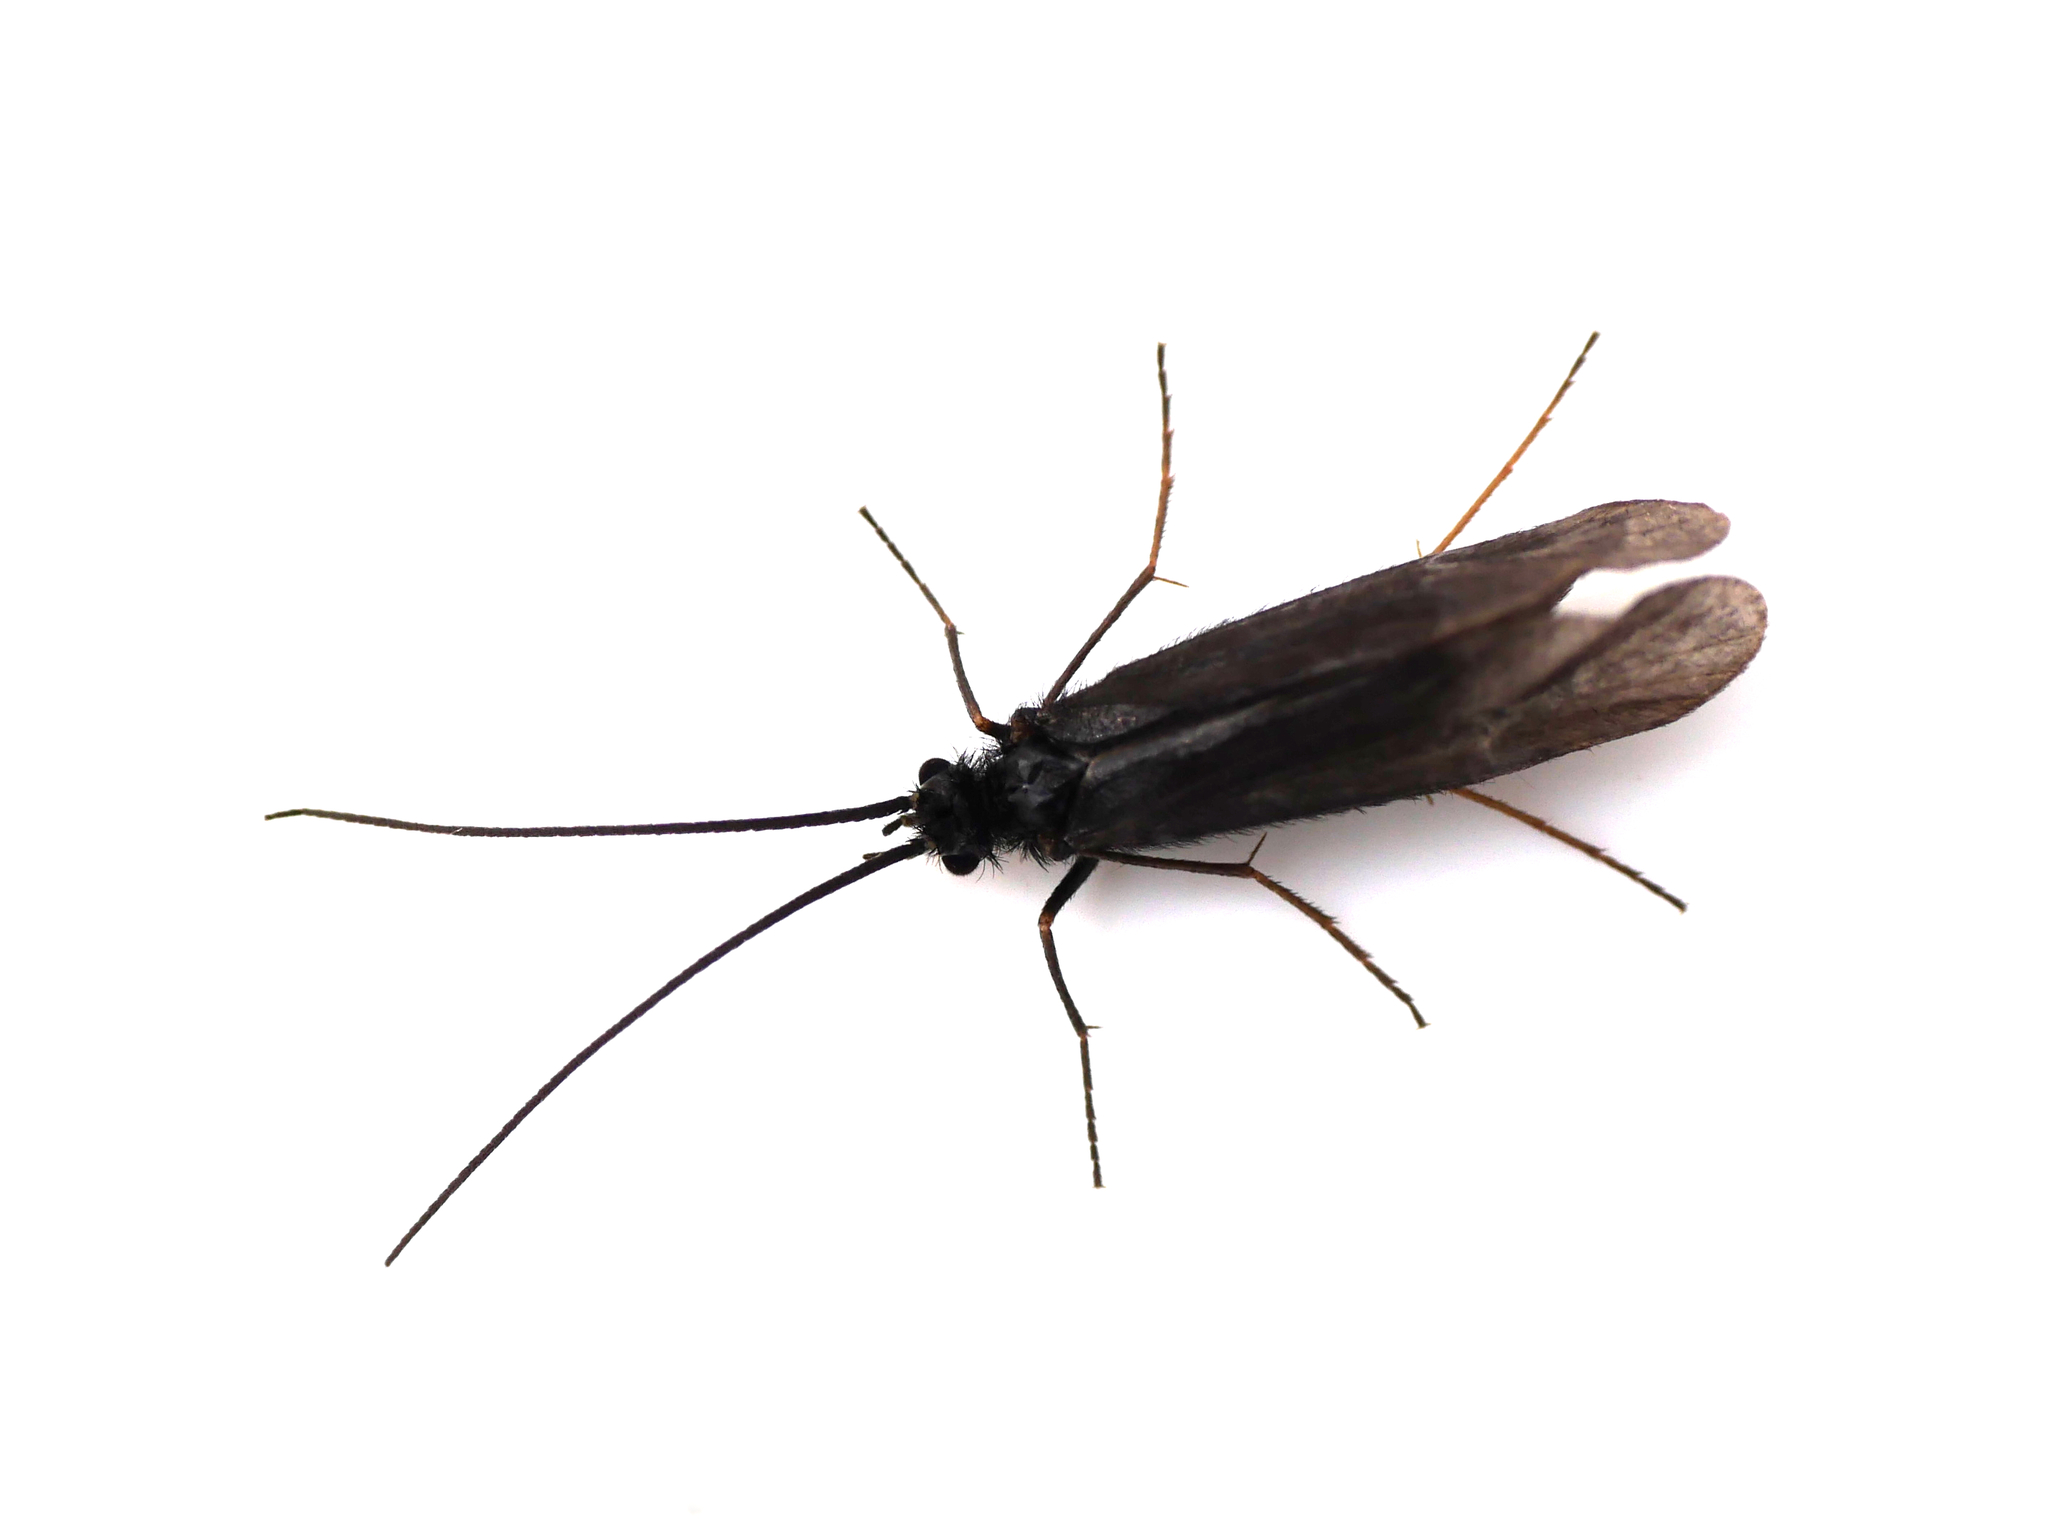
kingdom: Animalia
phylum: Arthropoda
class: Insecta
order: Trichoptera
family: Sericostomatidae
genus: Notidobia
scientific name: Notidobia ciliaris
